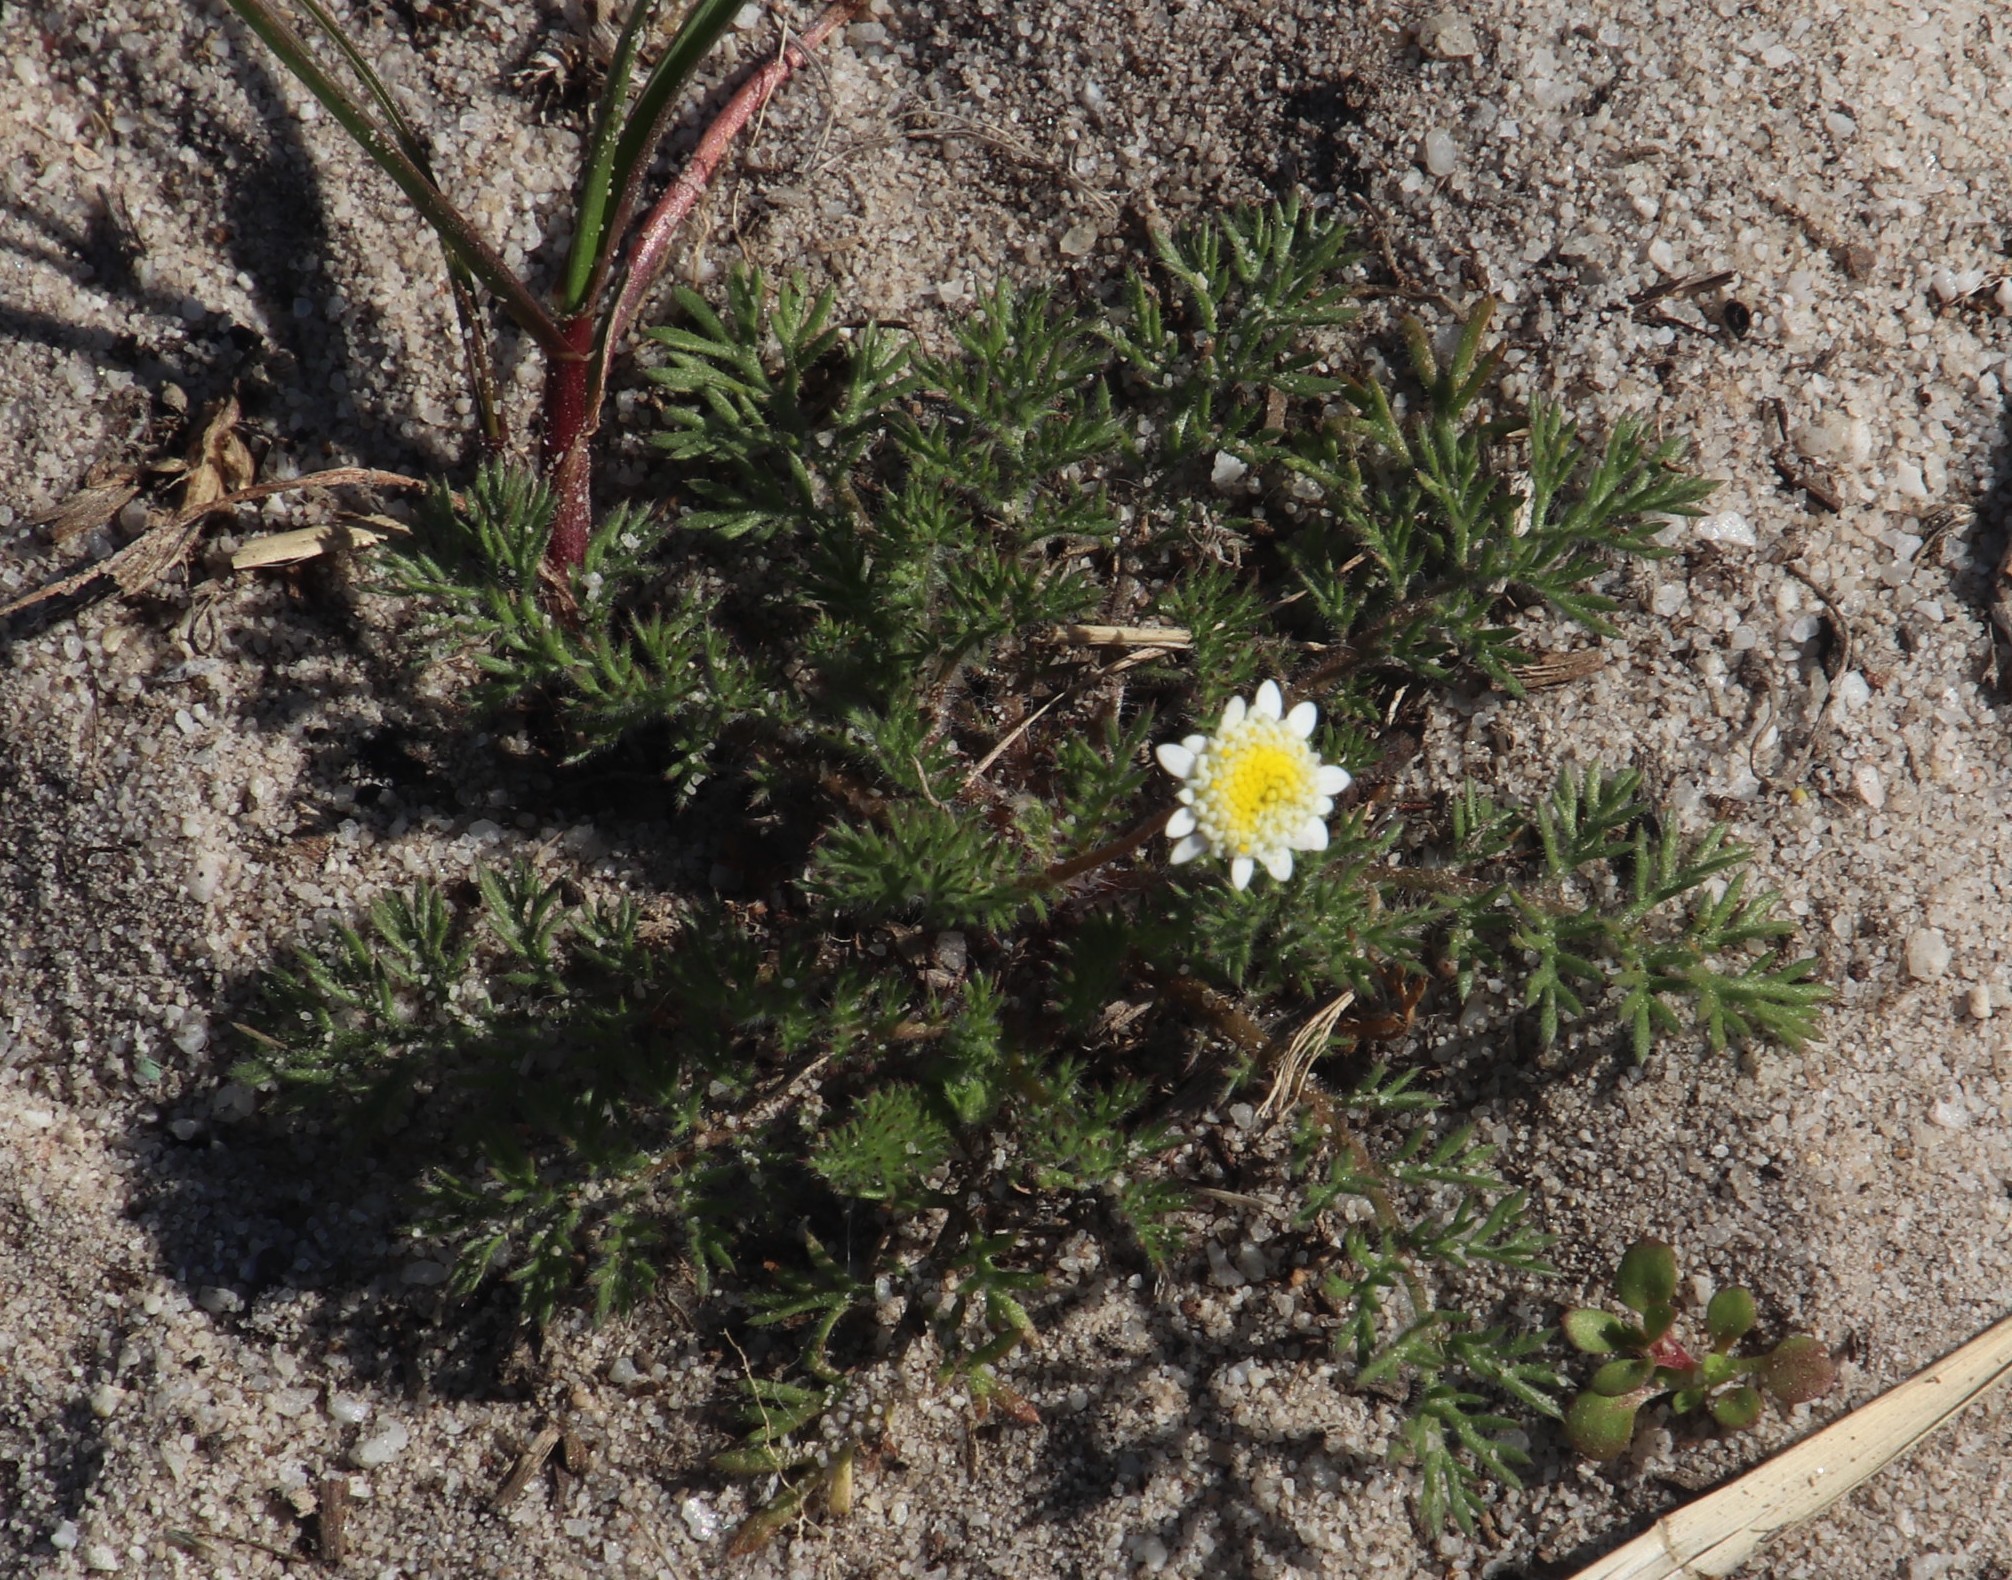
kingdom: Plantae
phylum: Tracheophyta
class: Magnoliopsida
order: Asterales
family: Asteraceae
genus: Cotula
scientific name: Cotula turbinata
